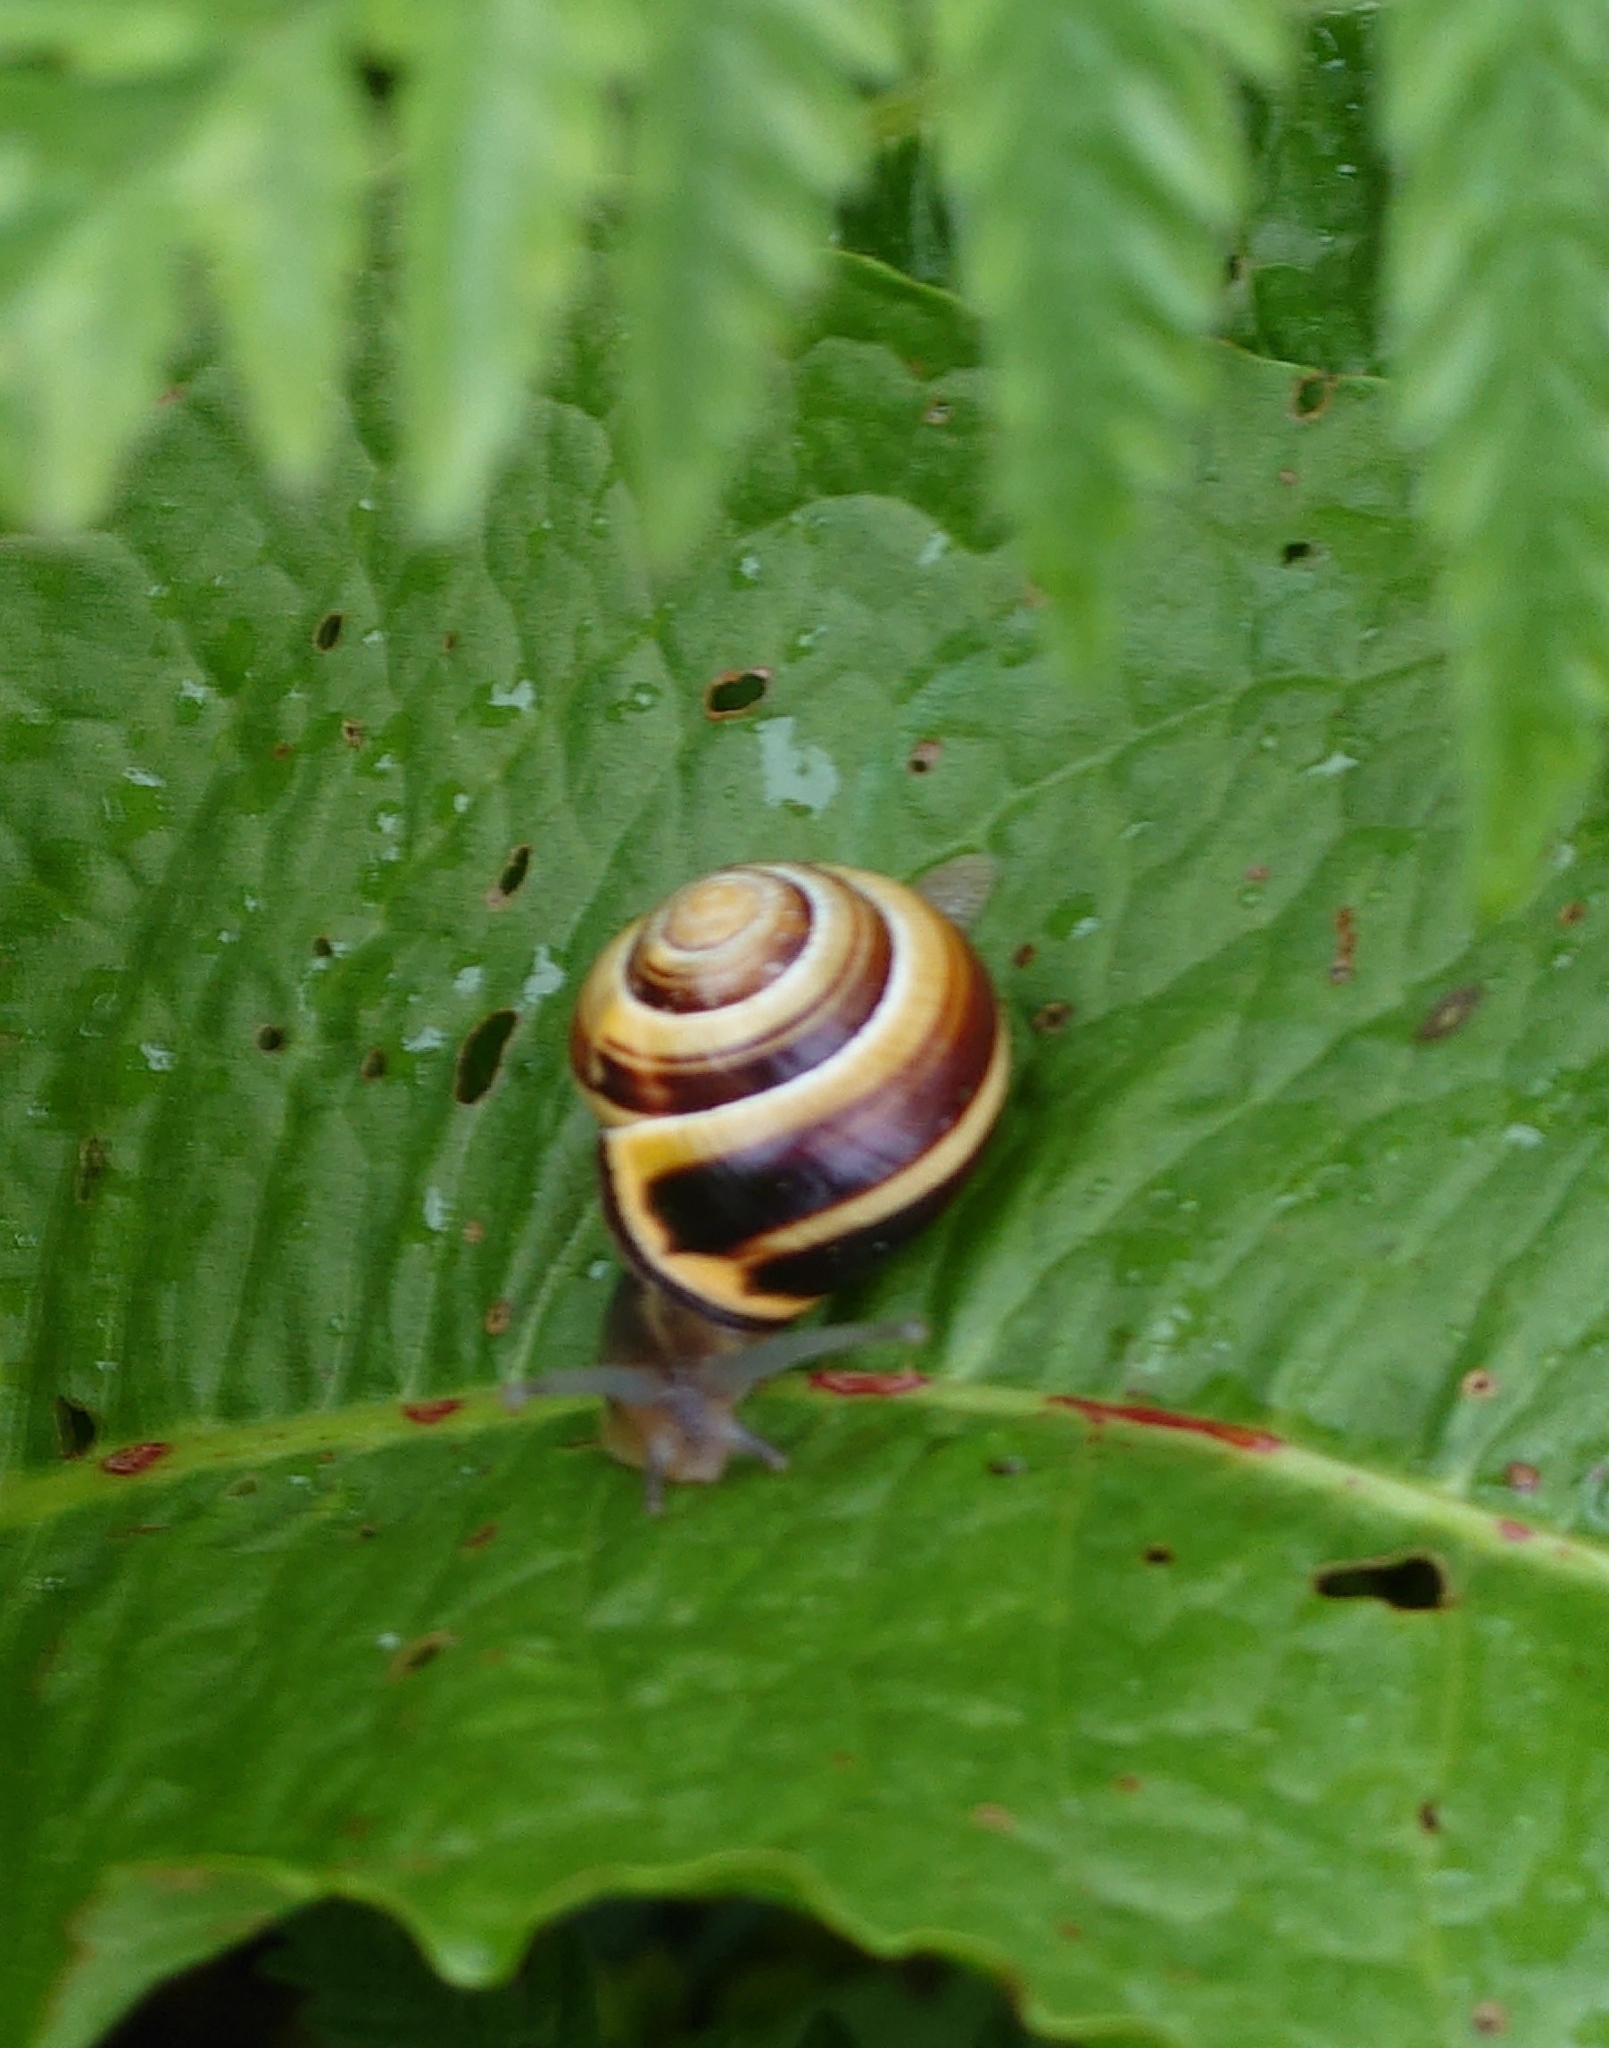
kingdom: Animalia
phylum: Mollusca
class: Gastropoda
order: Stylommatophora
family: Helicidae
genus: Cepaea
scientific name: Cepaea nemoralis
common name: Grovesnail
